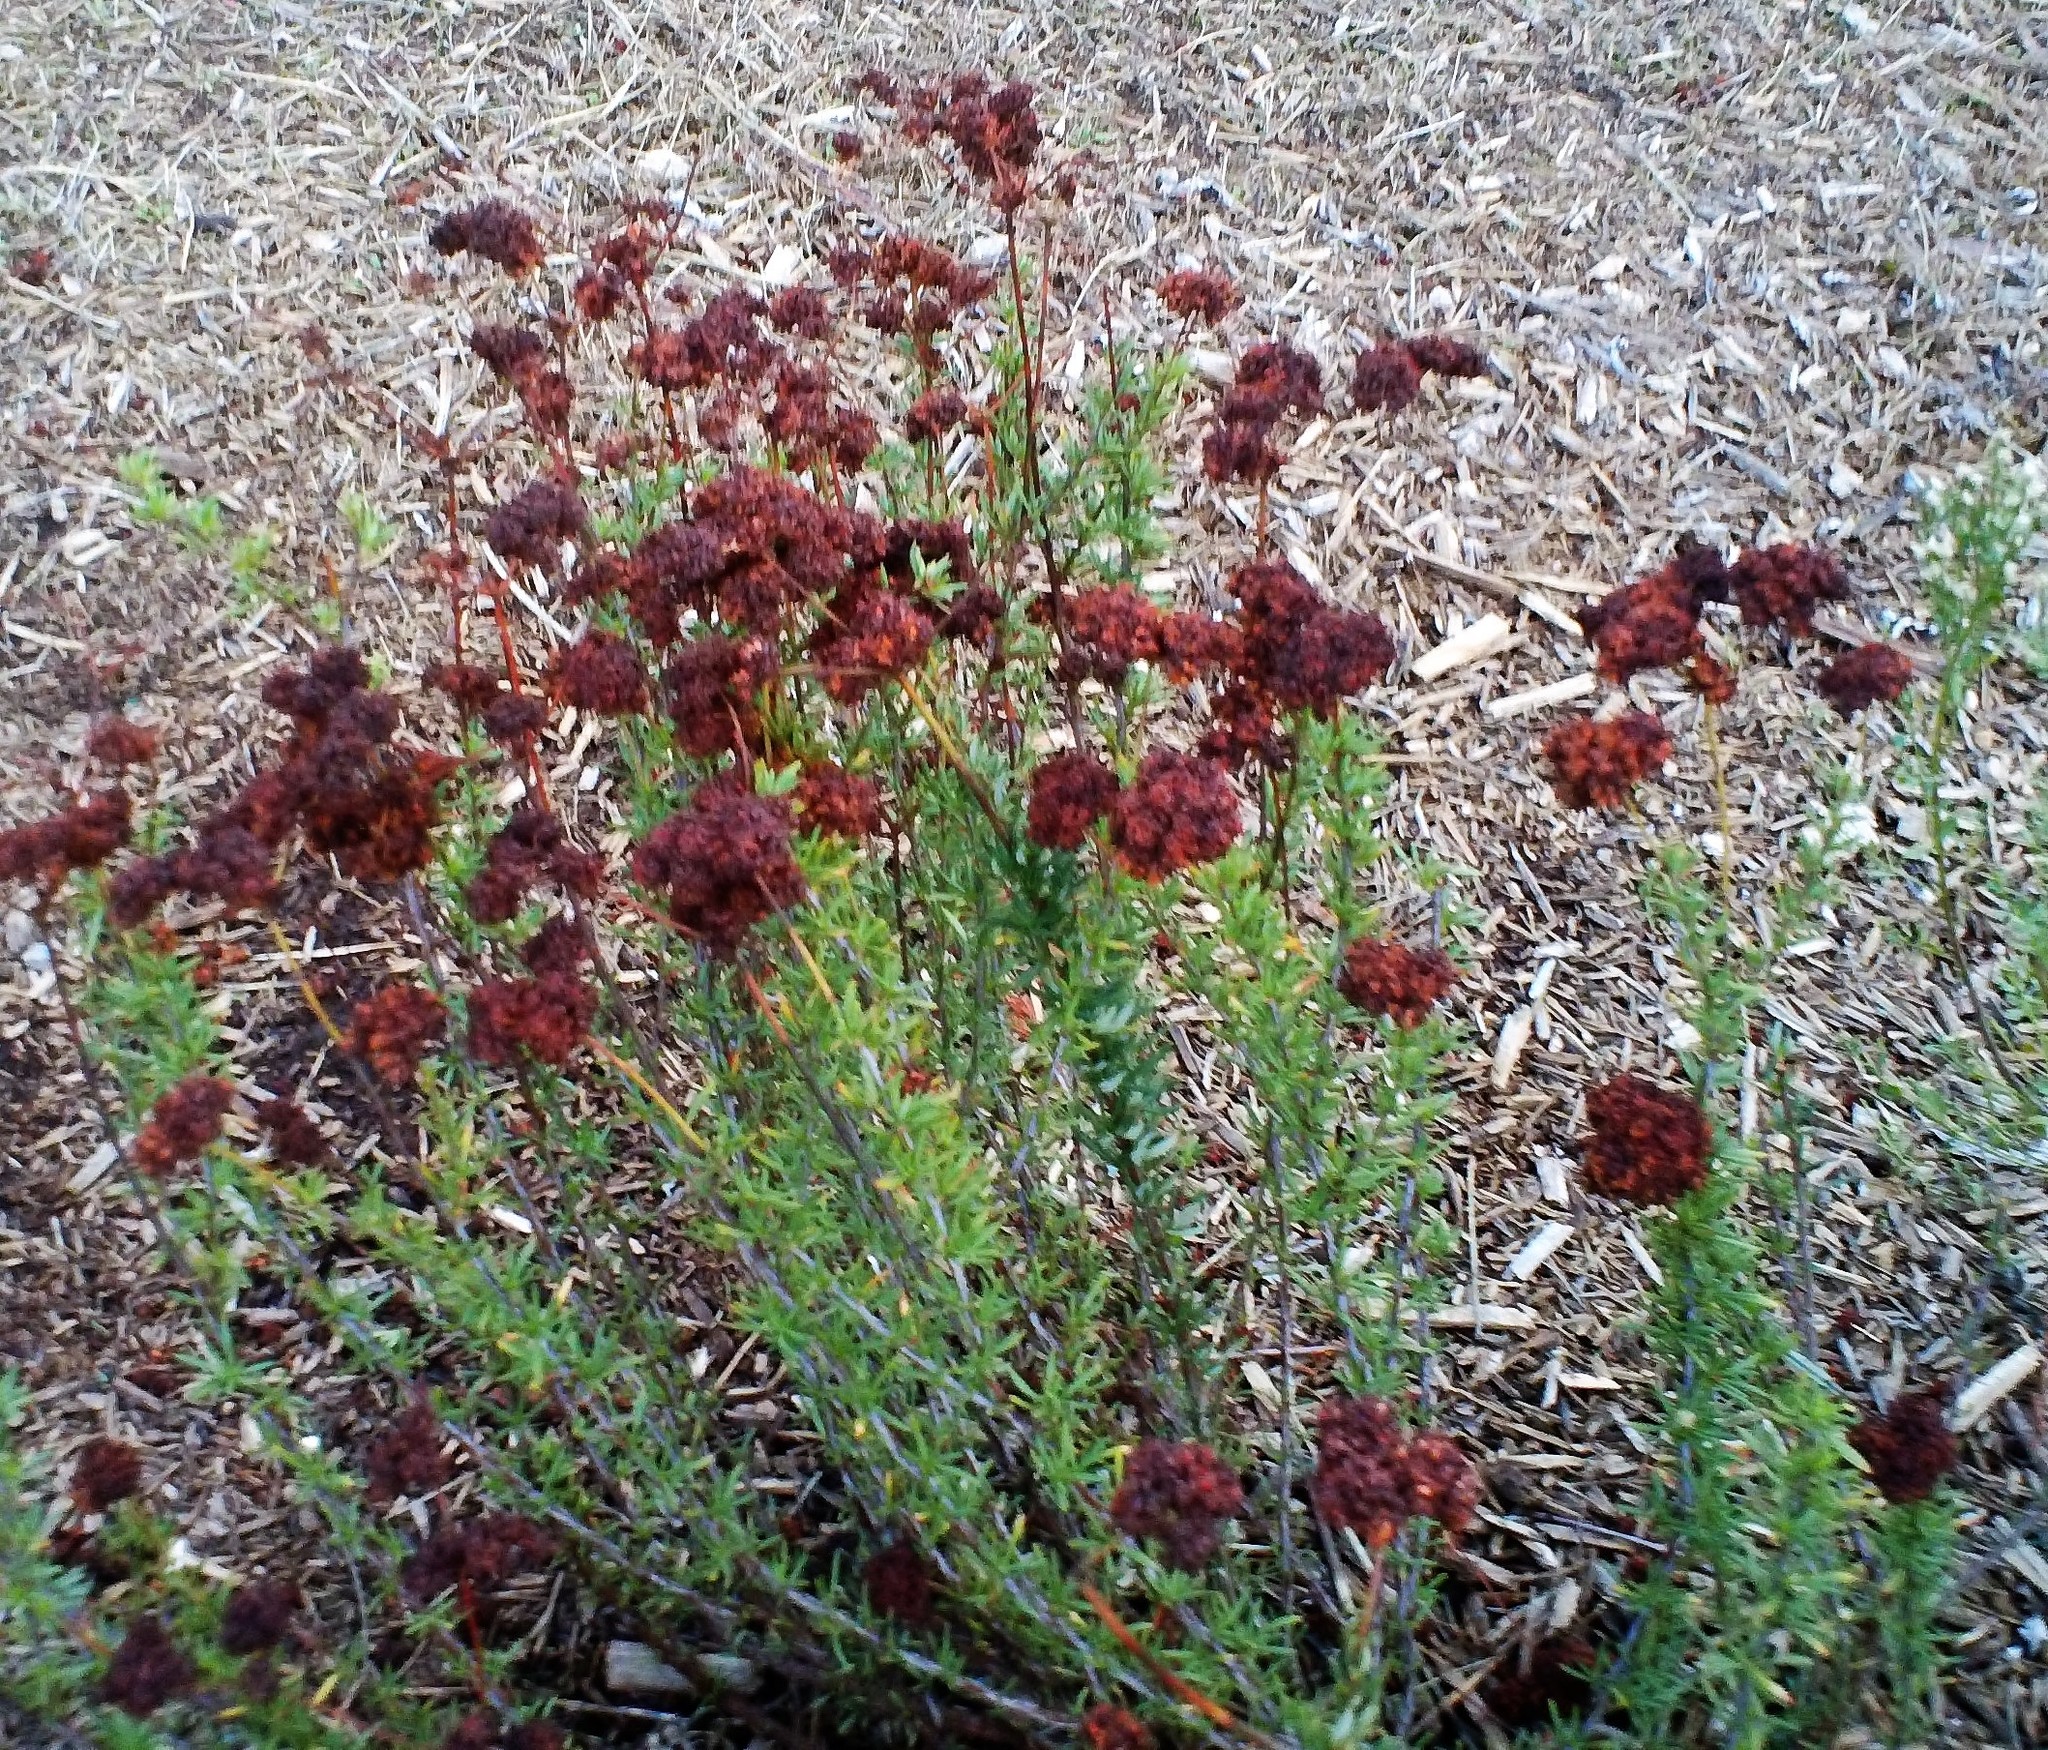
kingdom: Plantae
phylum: Tracheophyta
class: Magnoliopsida
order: Caryophyllales
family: Polygonaceae
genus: Eriogonum
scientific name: Eriogonum fasciculatum
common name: California wild buckwheat
